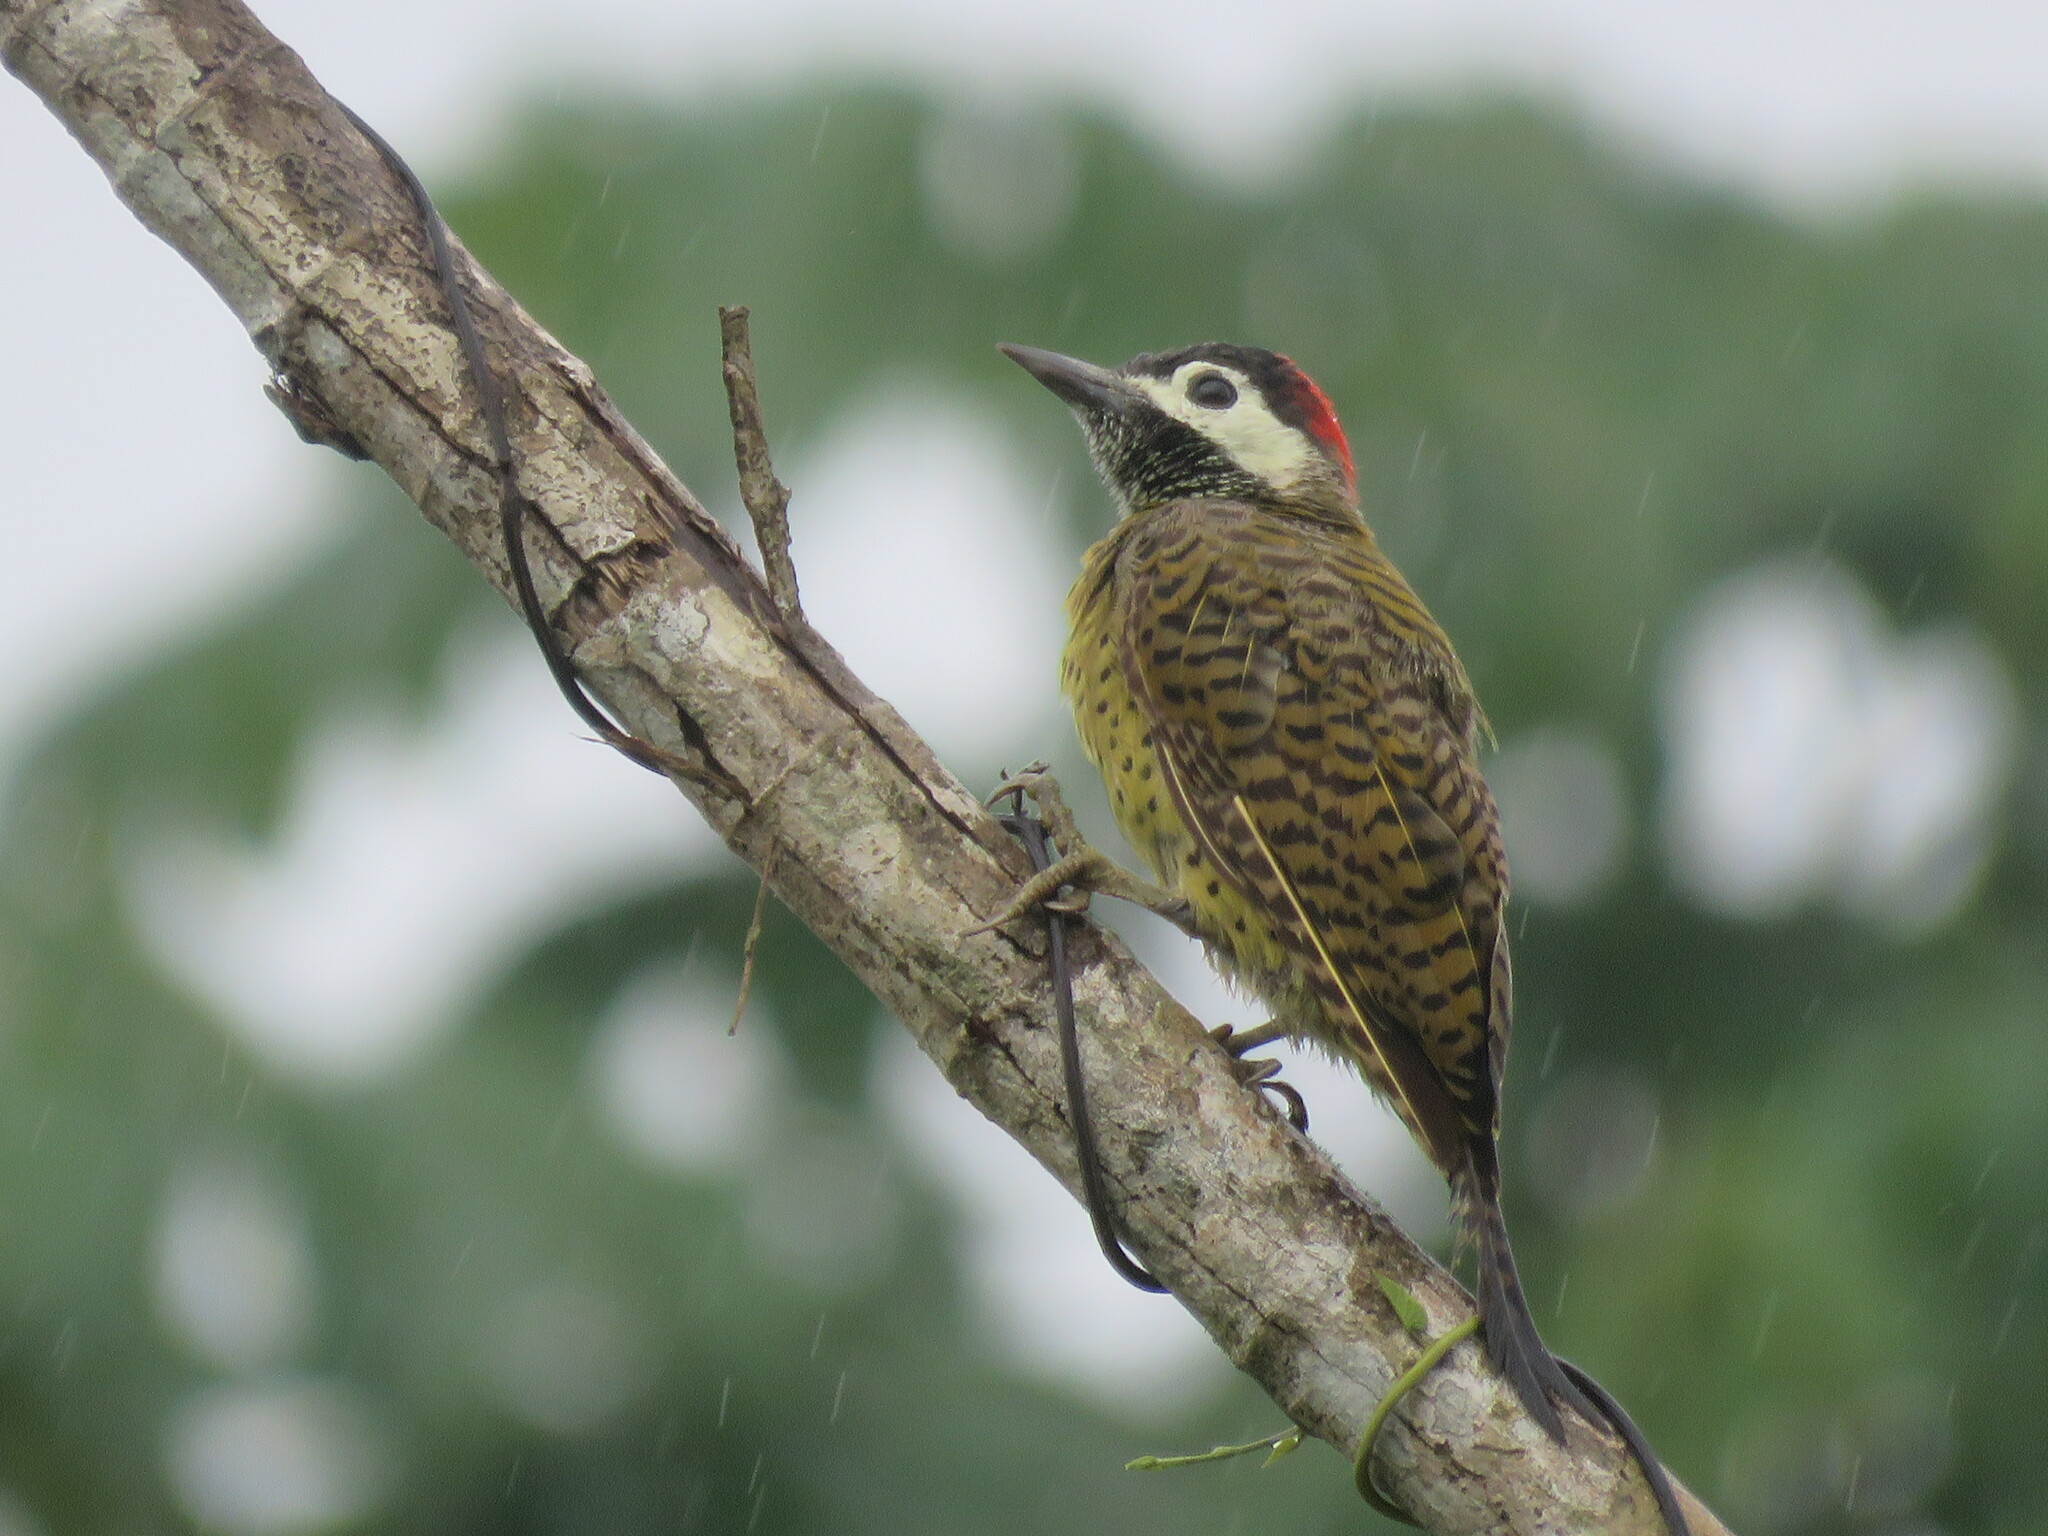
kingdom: Animalia
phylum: Chordata
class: Aves
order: Piciformes
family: Picidae
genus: Colaptes
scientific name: Colaptes punctigula
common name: Spot-breasted woodpecker
